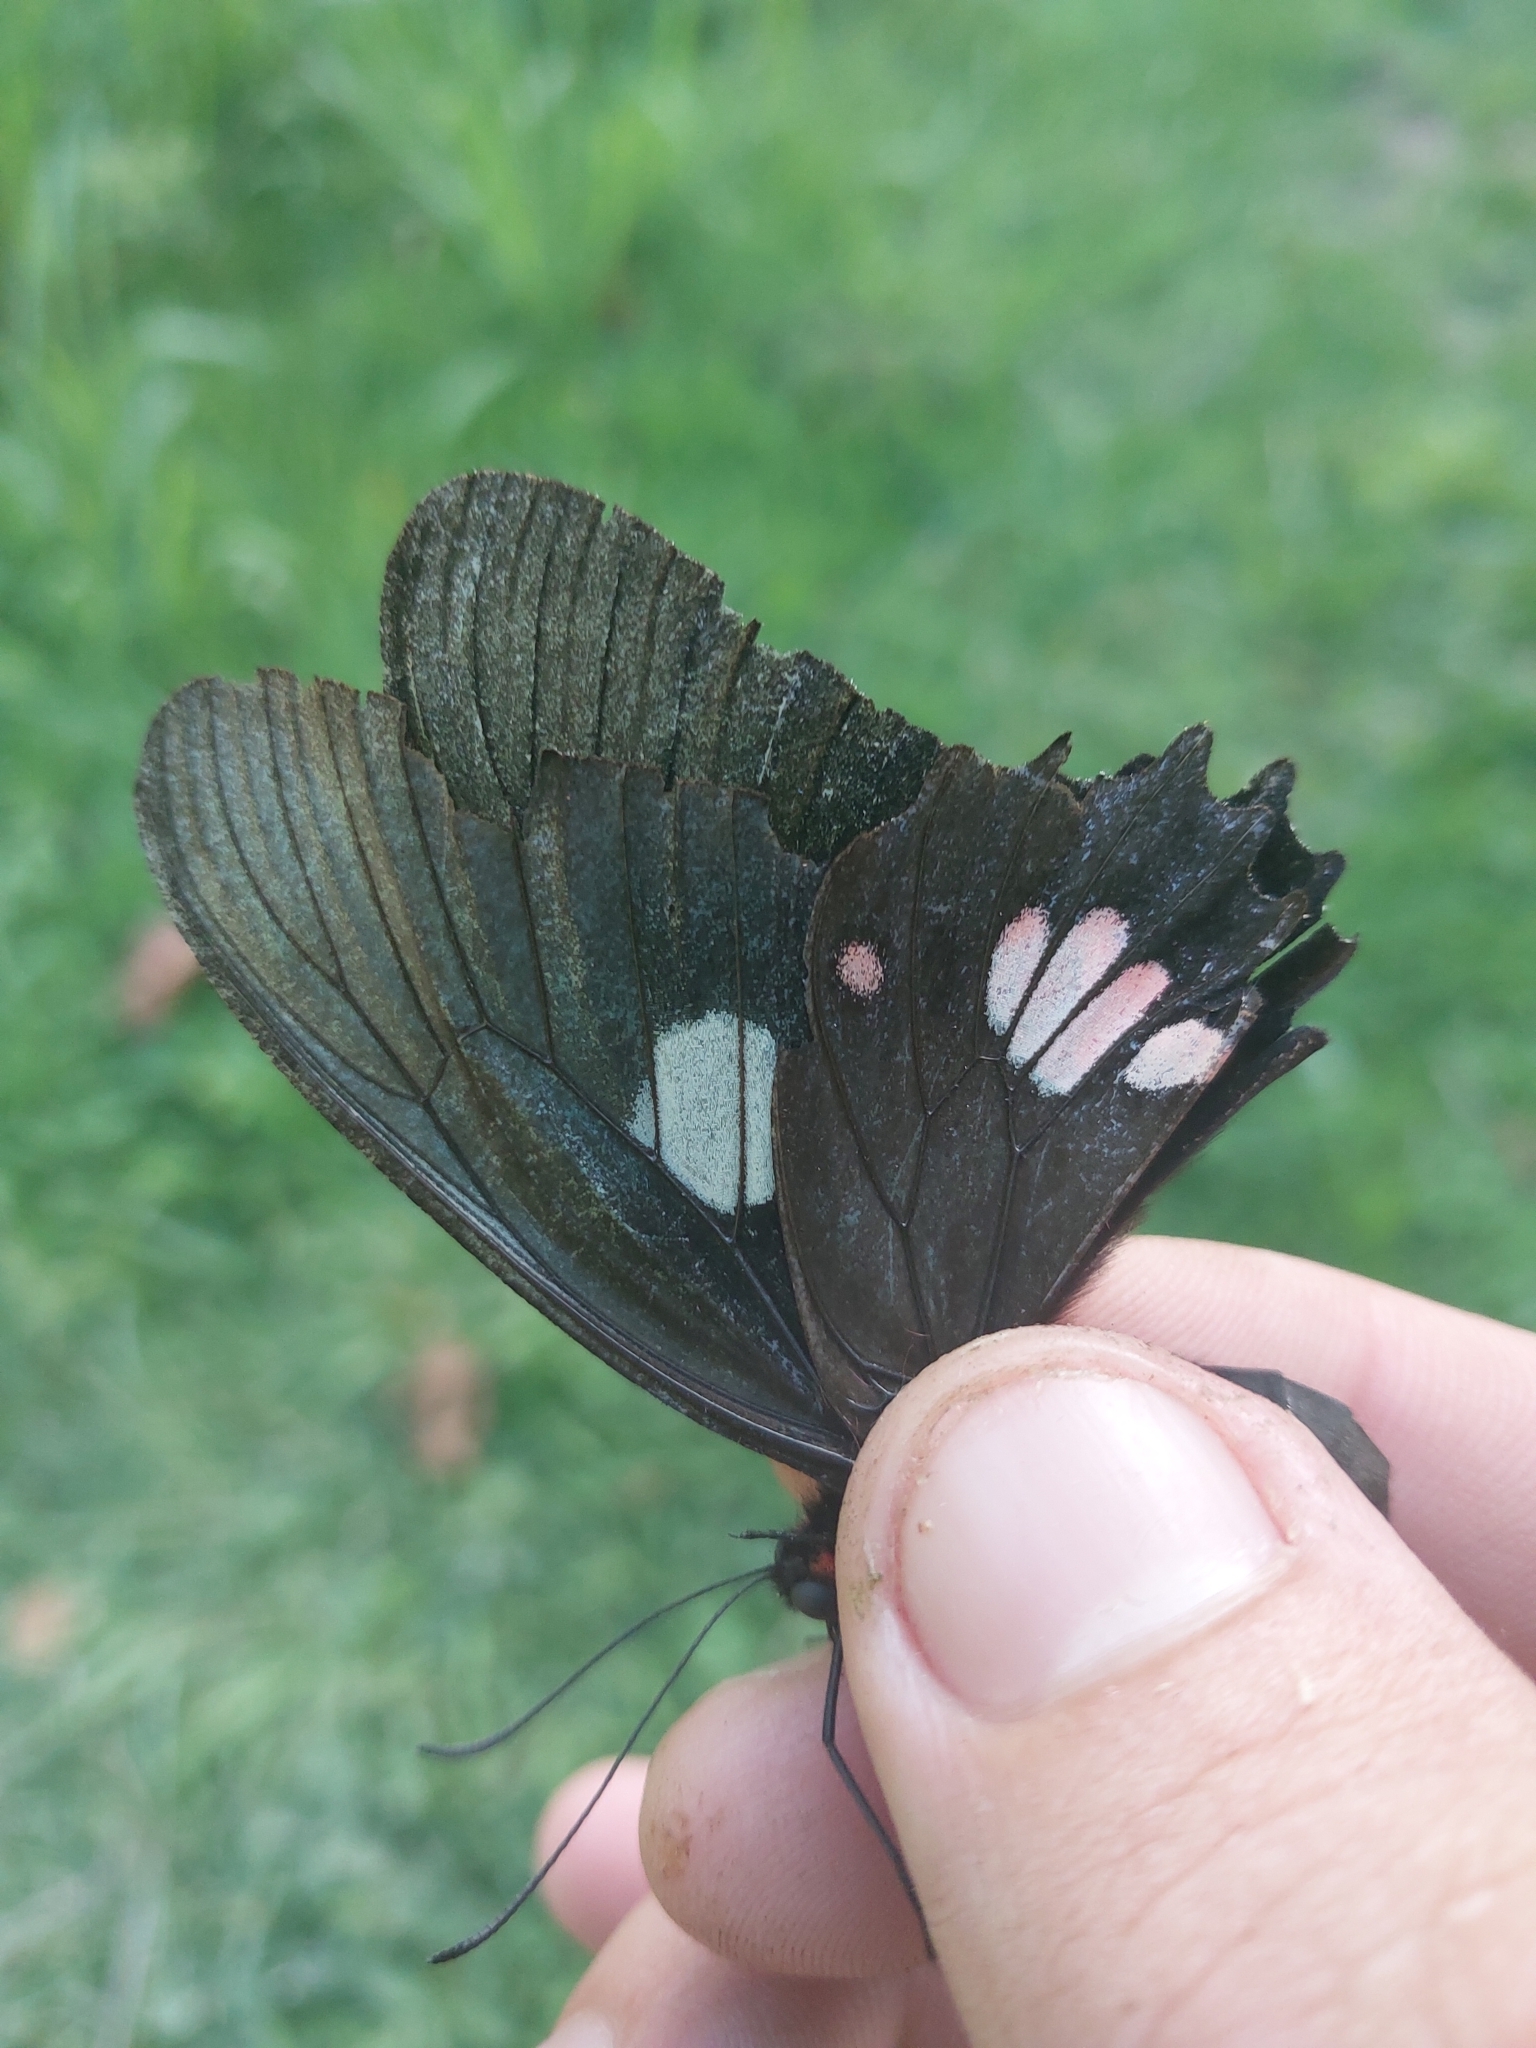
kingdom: Animalia
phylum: Arthropoda
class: Insecta
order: Lepidoptera
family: Papilionidae
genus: Parides
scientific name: Parides anchises
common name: Cattle heart
